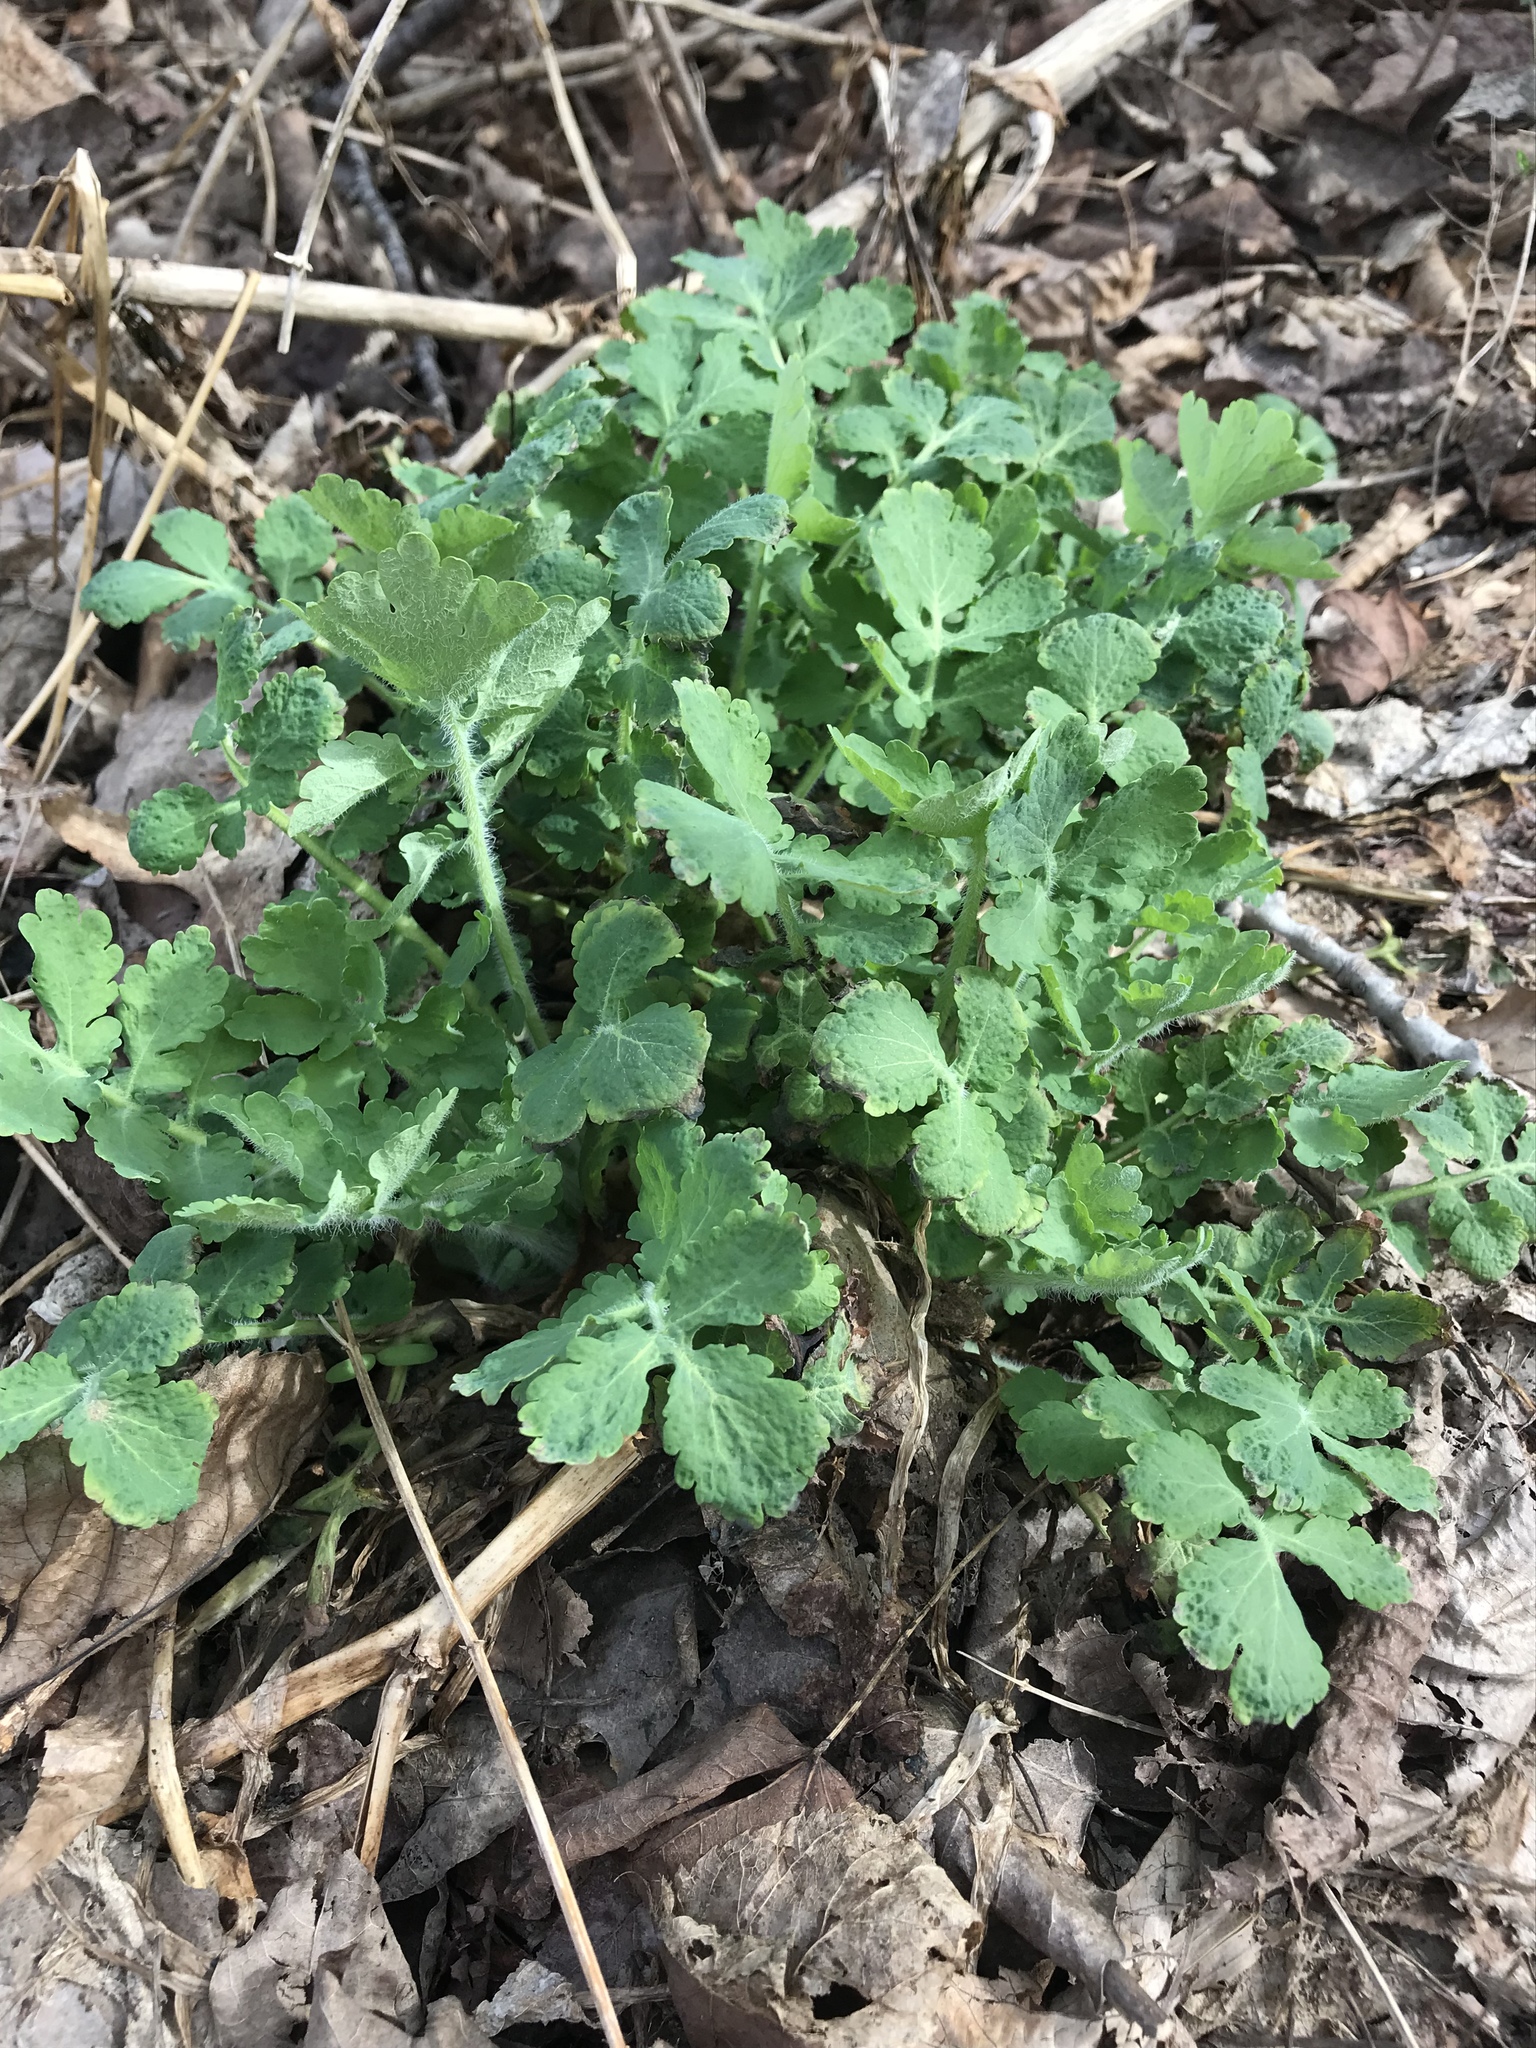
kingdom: Plantae
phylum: Tracheophyta
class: Magnoliopsida
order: Ranunculales
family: Papaveraceae
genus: Chelidonium
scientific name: Chelidonium majus
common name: Greater celandine
